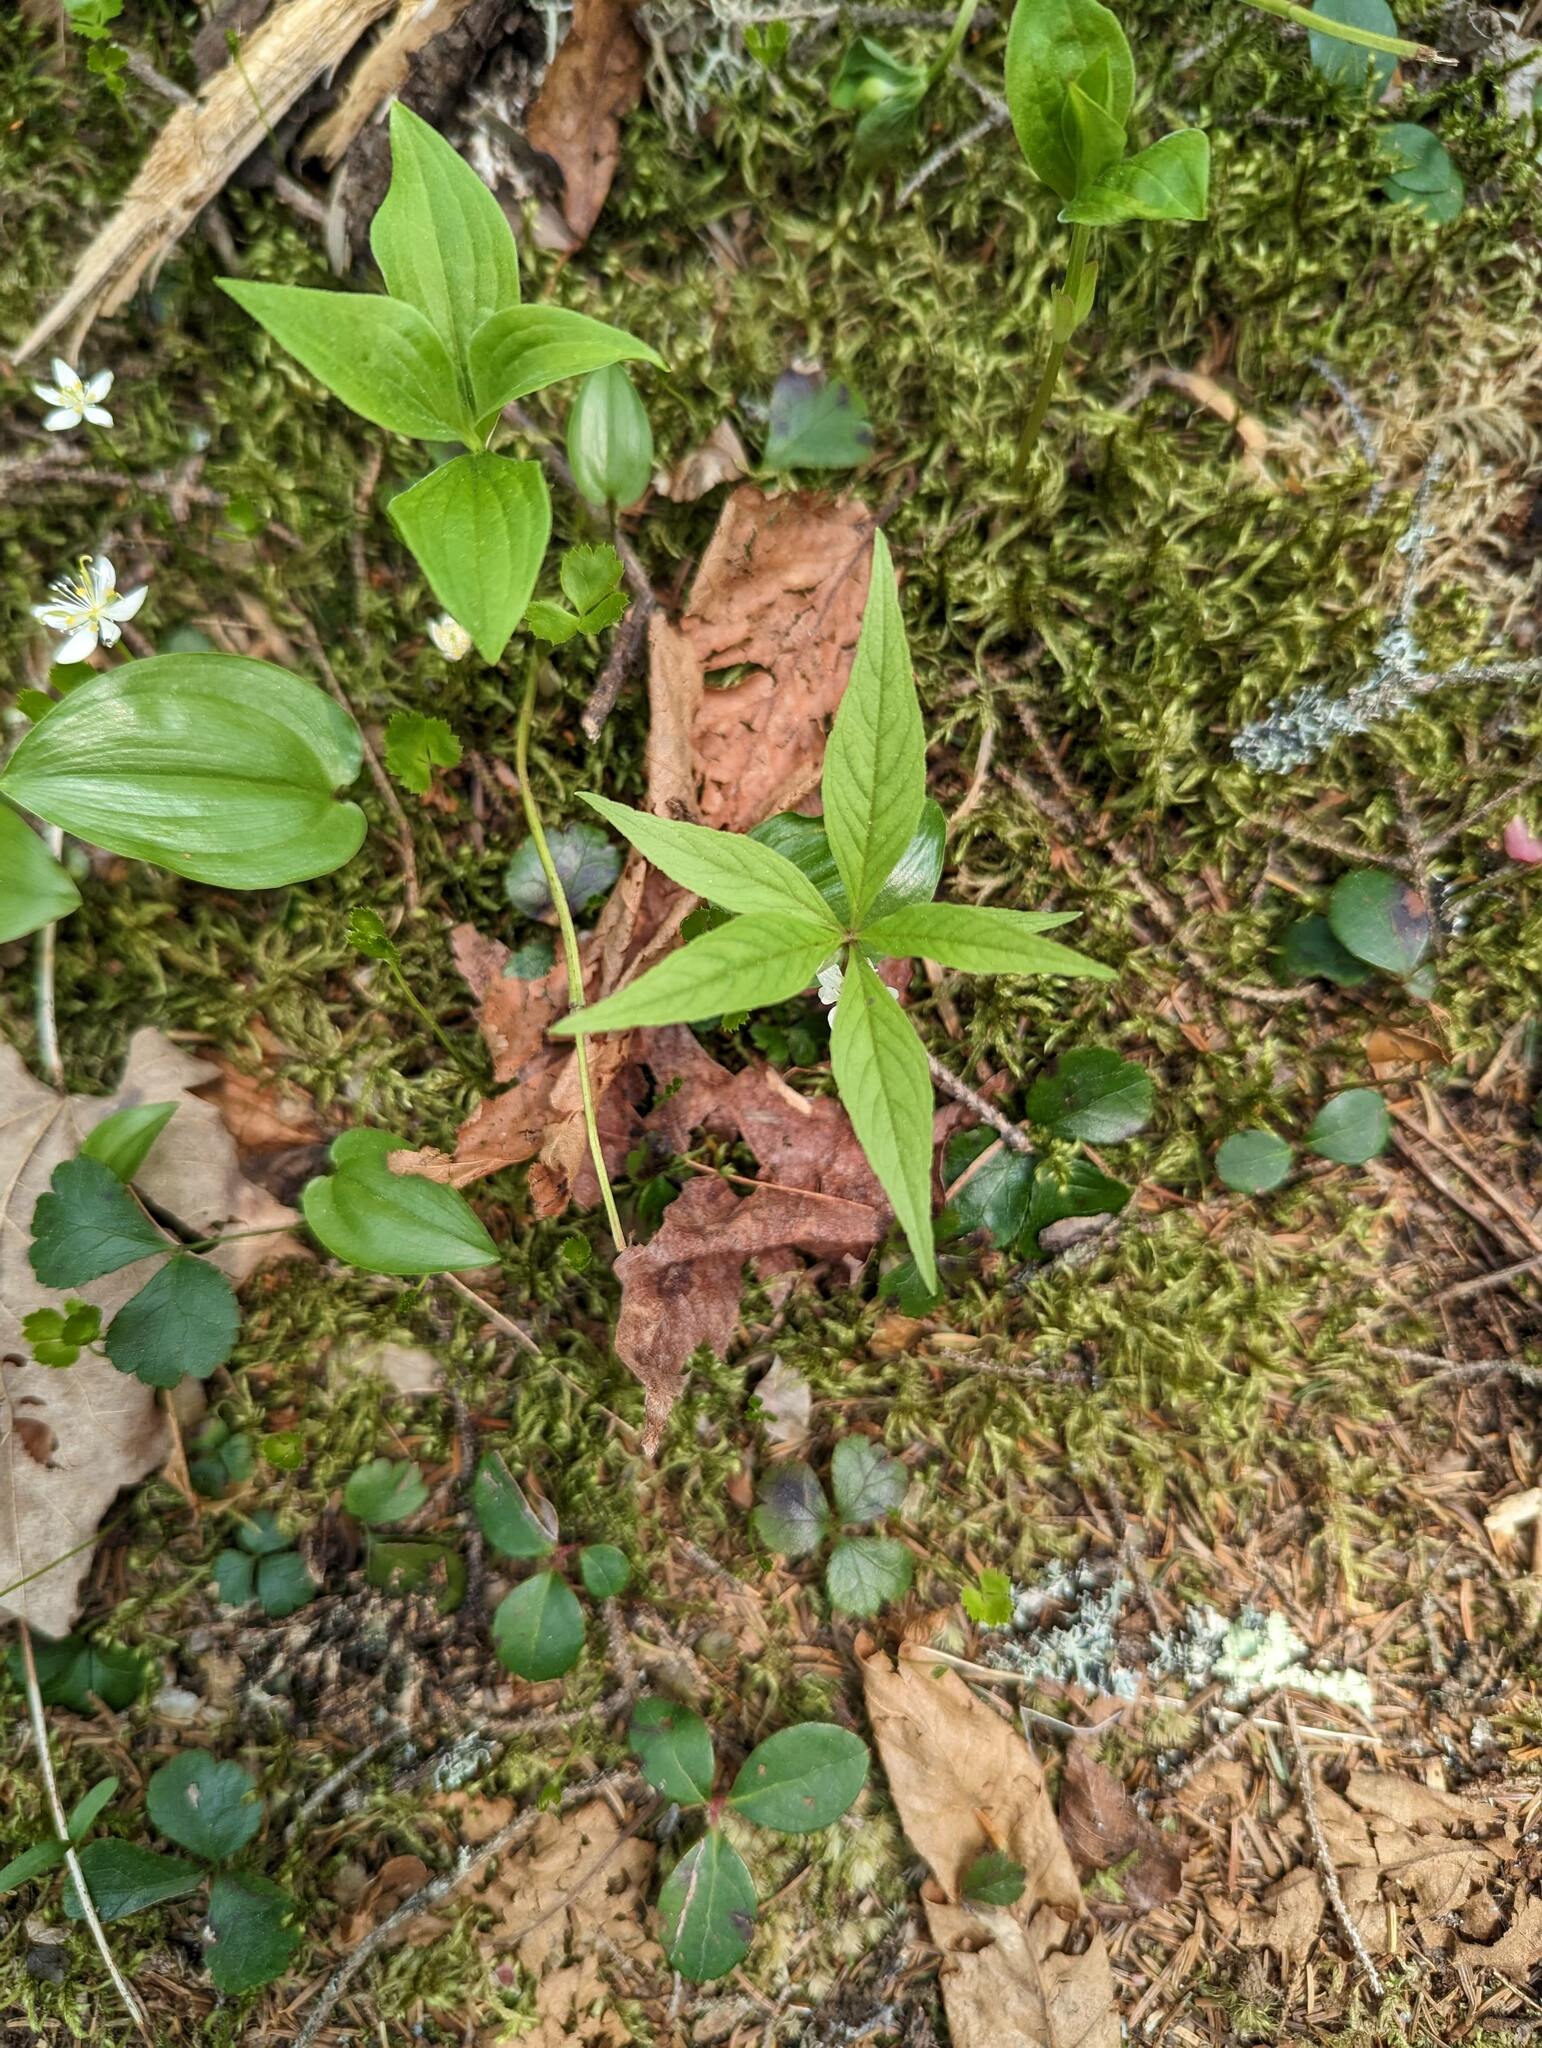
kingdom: Plantae
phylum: Tracheophyta
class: Magnoliopsida
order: Ericales
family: Primulaceae
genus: Lysimachia
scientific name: Lysimachia borealis
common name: American starflower
